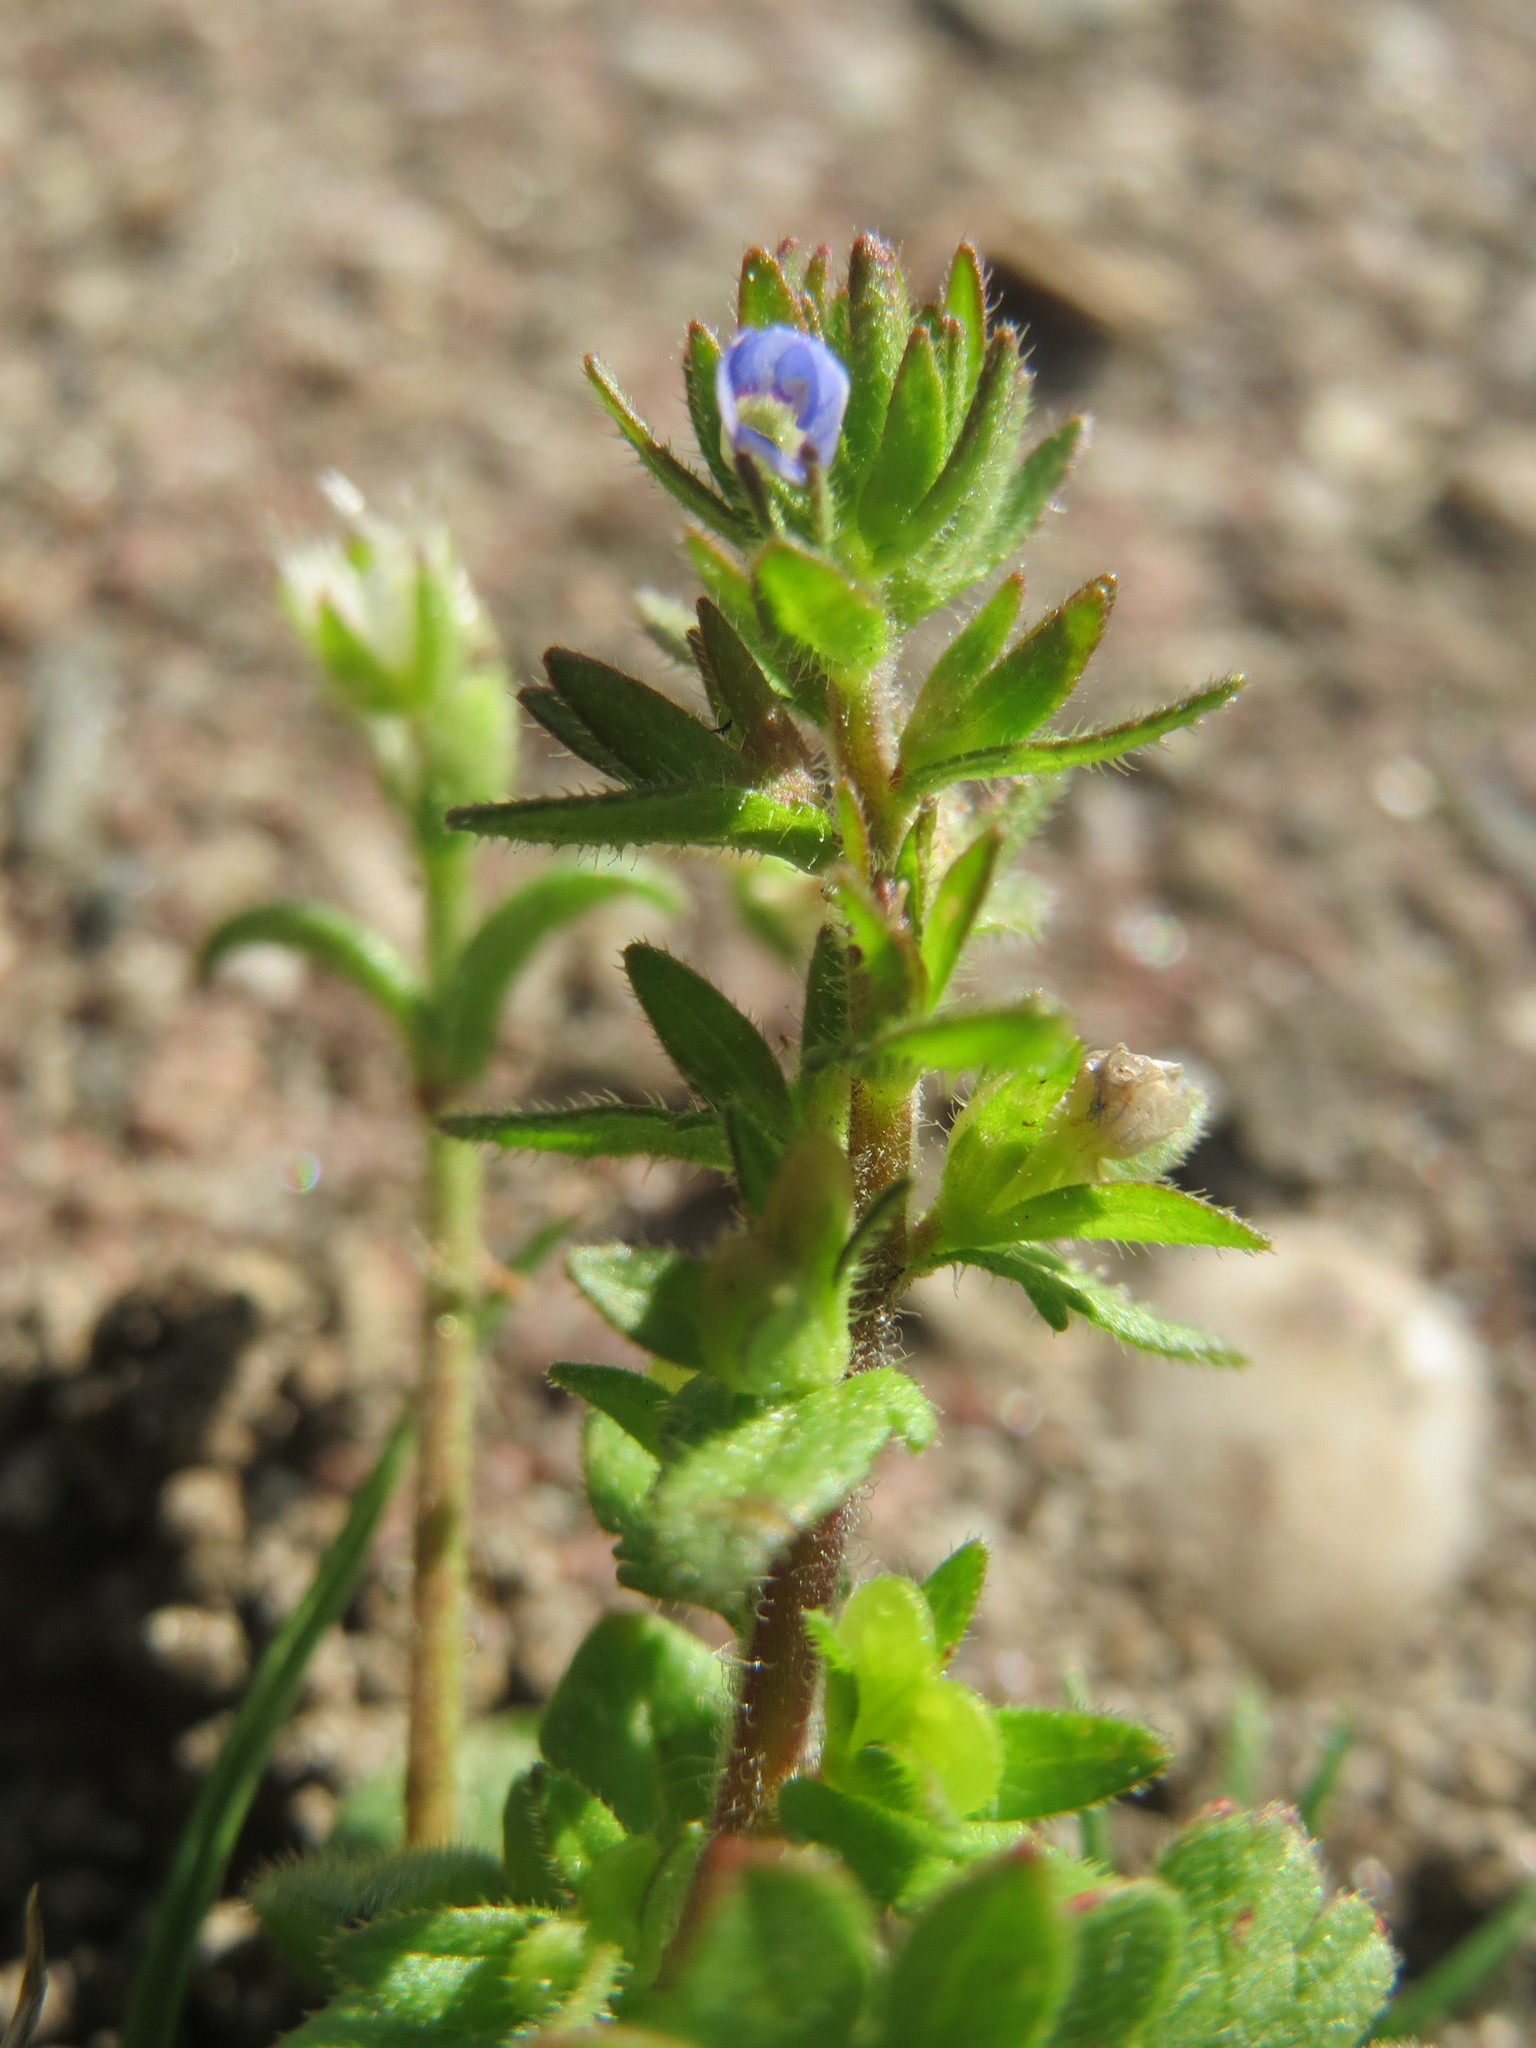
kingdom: Plantae
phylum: Tracheophyta
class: Magnoliopsida
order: Lamiales
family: Plantaginaceae
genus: Veronica
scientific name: Veronica arvensis
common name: Corn speedwell
